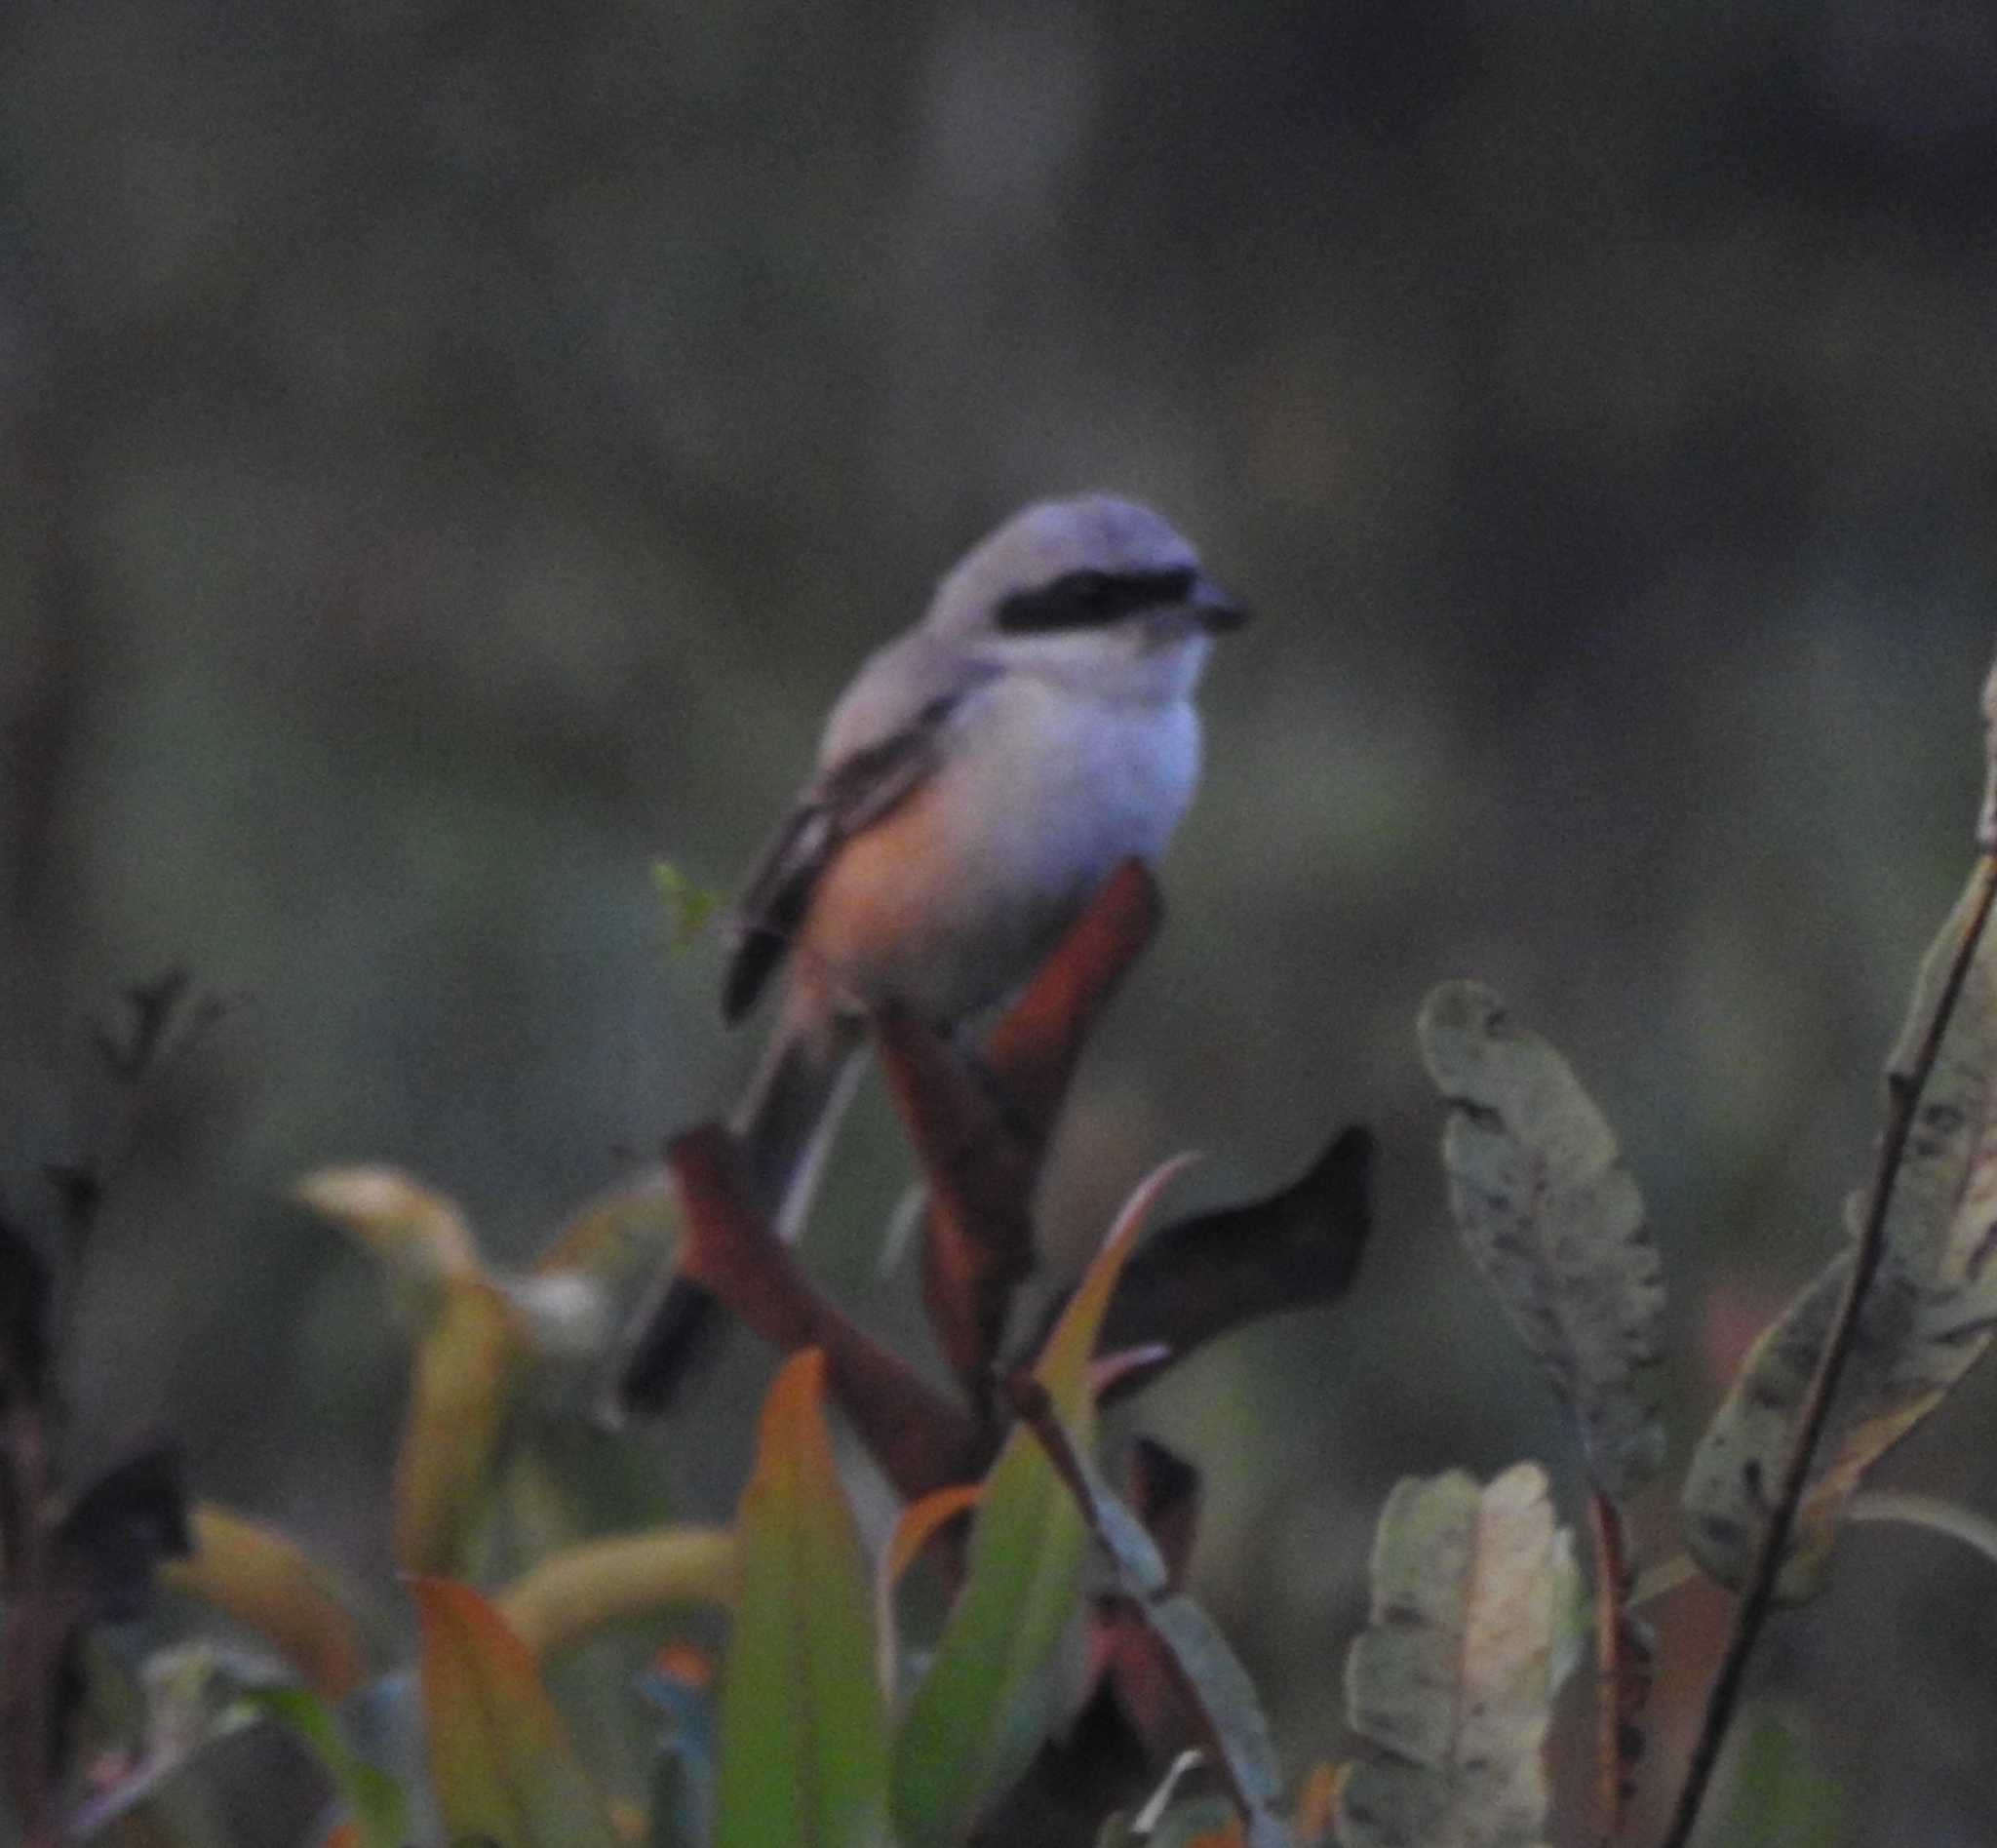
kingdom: Animalia
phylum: Chordata
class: Aves
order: Passeriformes
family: Laniidae
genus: Lanius
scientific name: Lanius schach
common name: Long-tailed shrike
